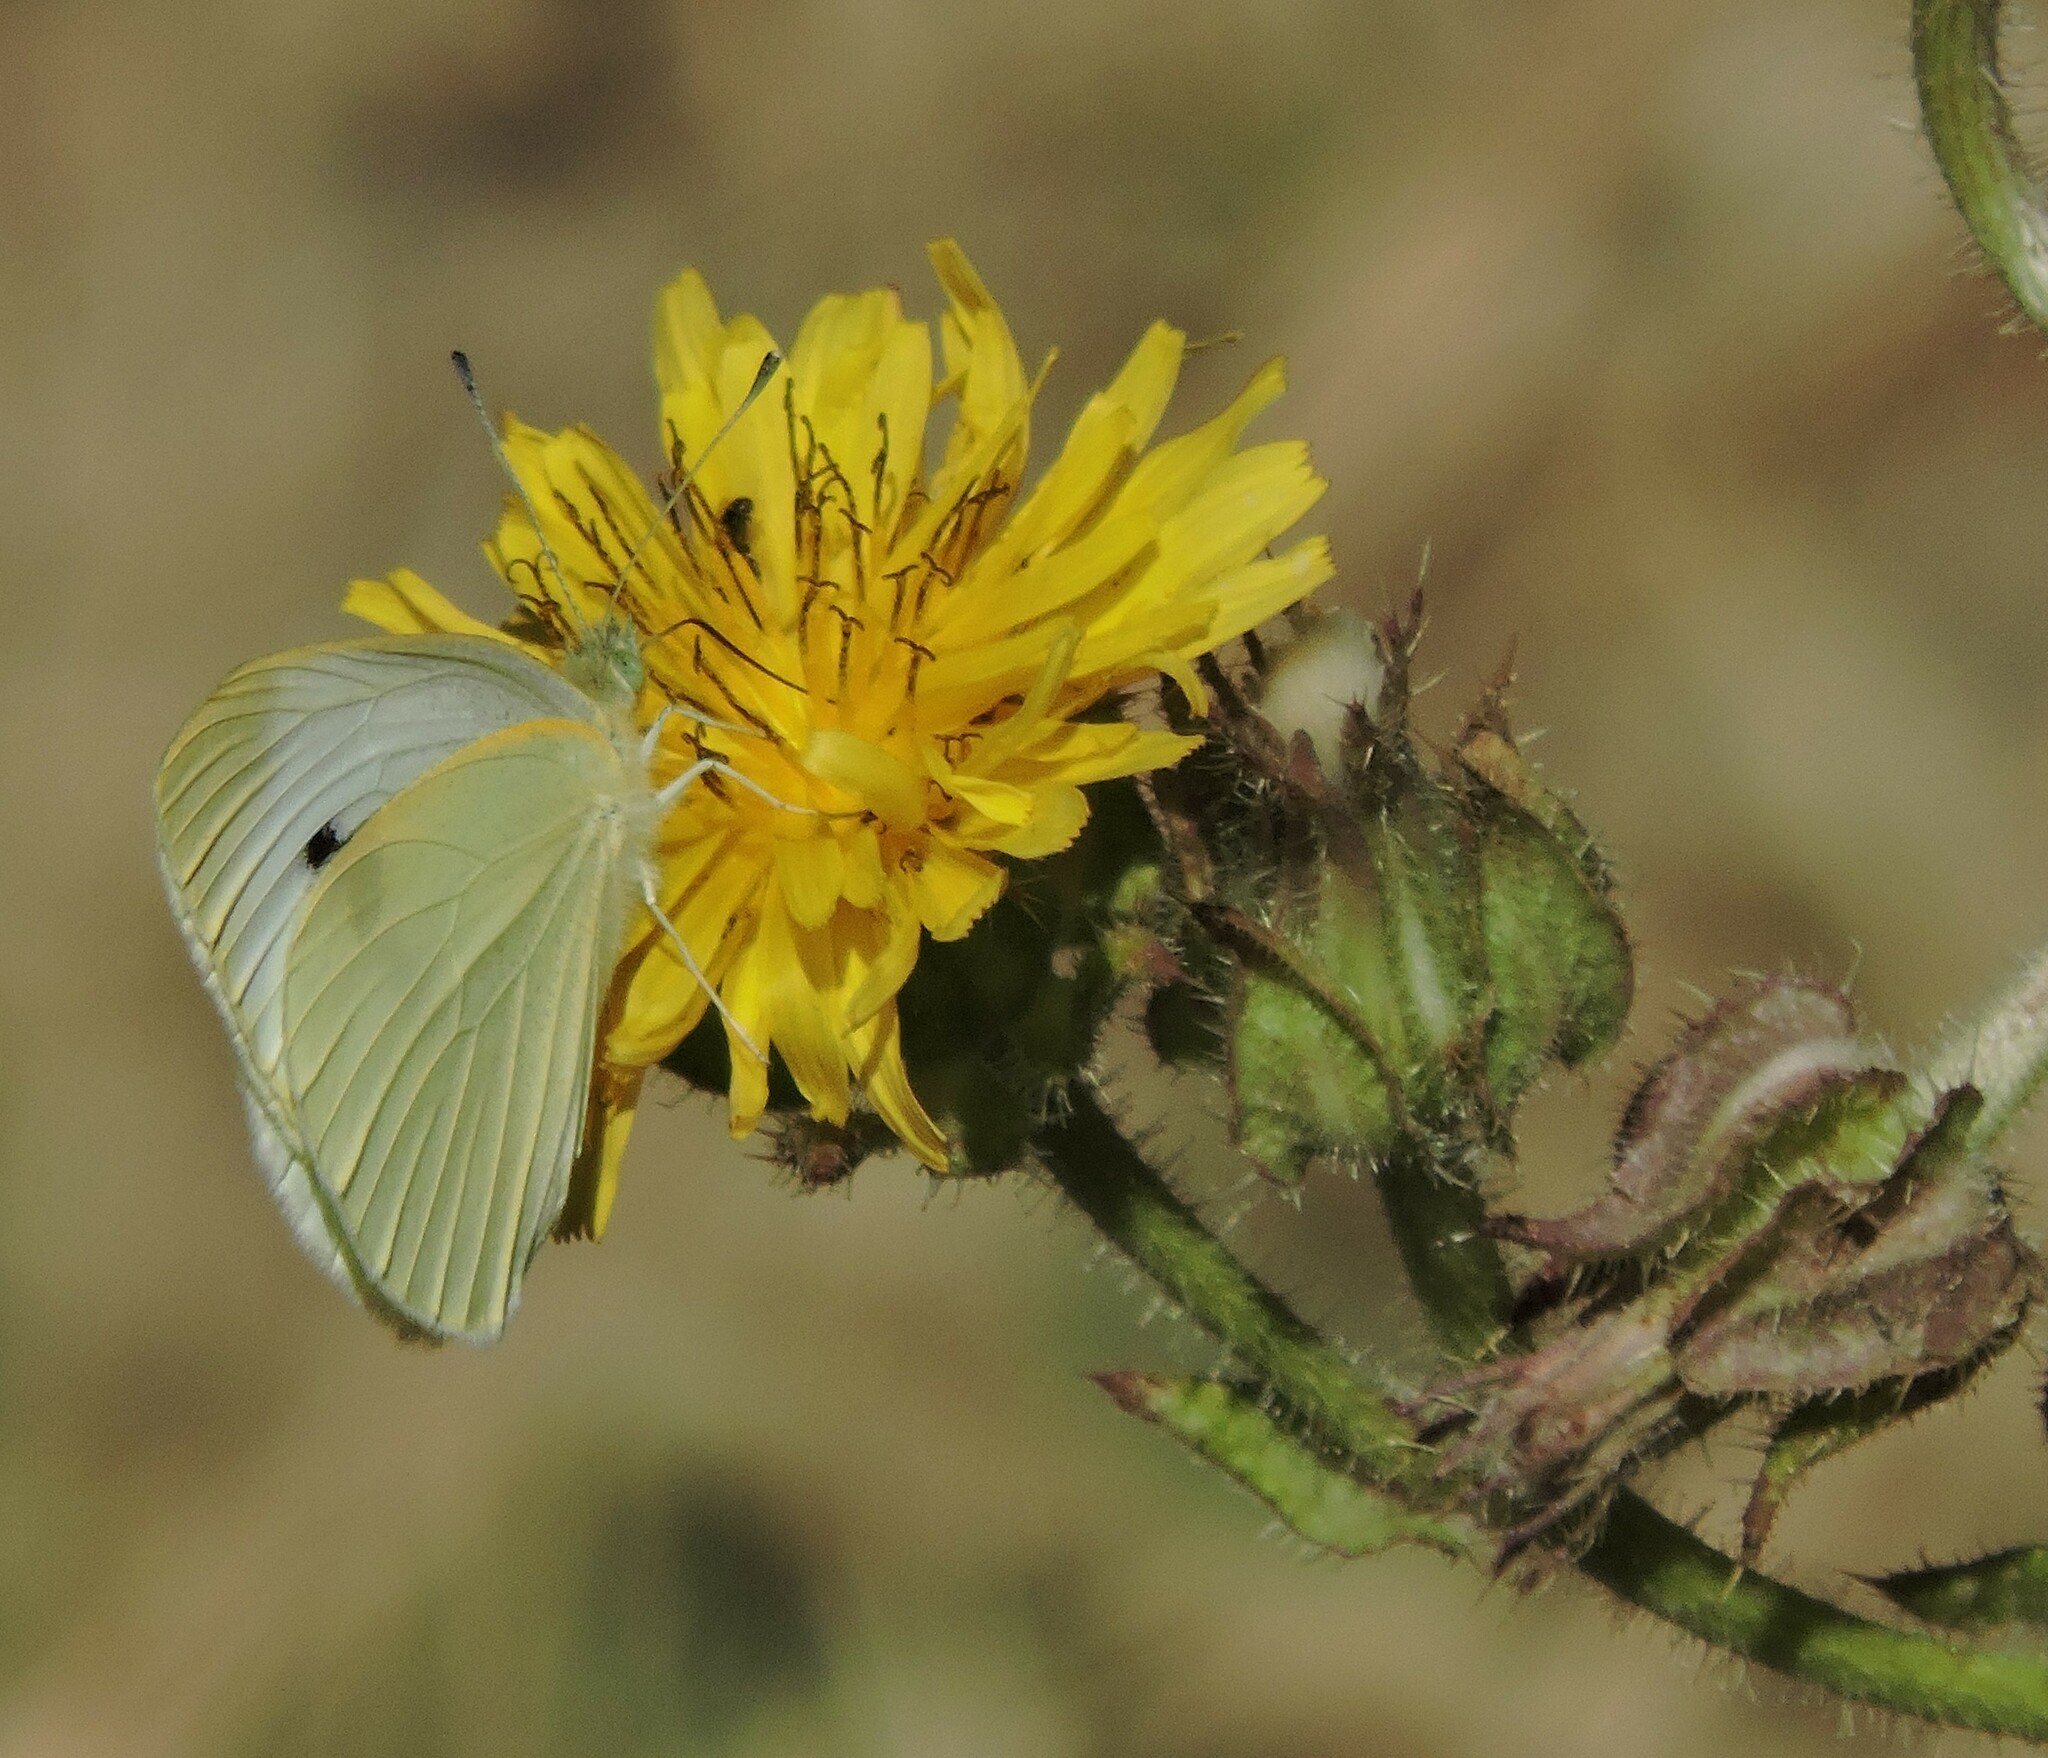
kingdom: Animalia
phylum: Arthropoda
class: Insecta
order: Lepidoptera
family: Pieridae
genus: Pieris
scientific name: Pieris rapae
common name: Small white
